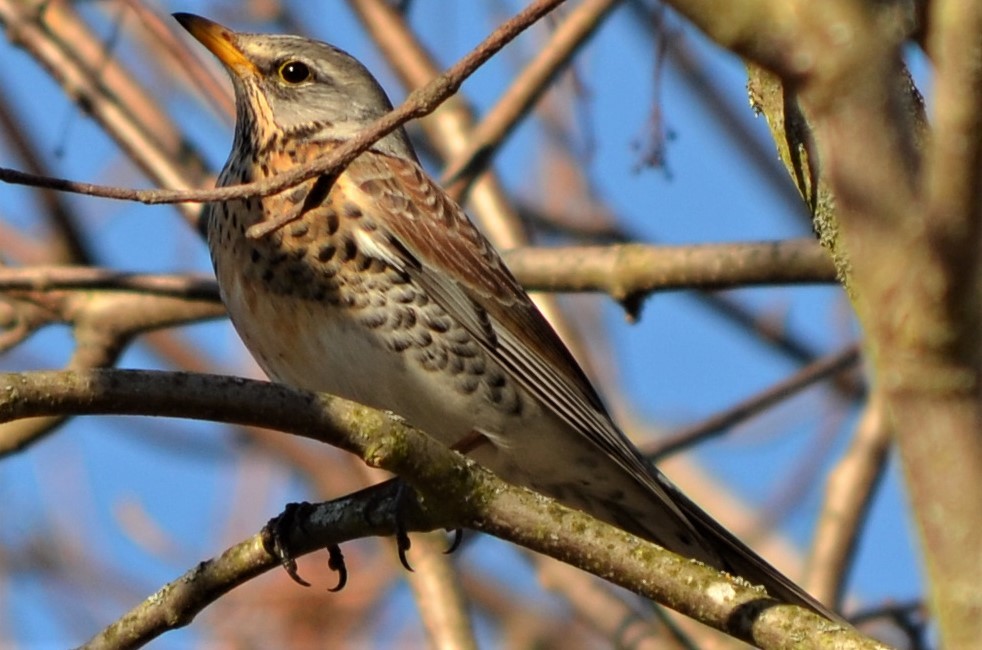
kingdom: Animalia
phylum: Chordata
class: Aves
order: Passeriformes
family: Turdidae
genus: Turdus
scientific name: Turdus pilaris
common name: Fieldfare
